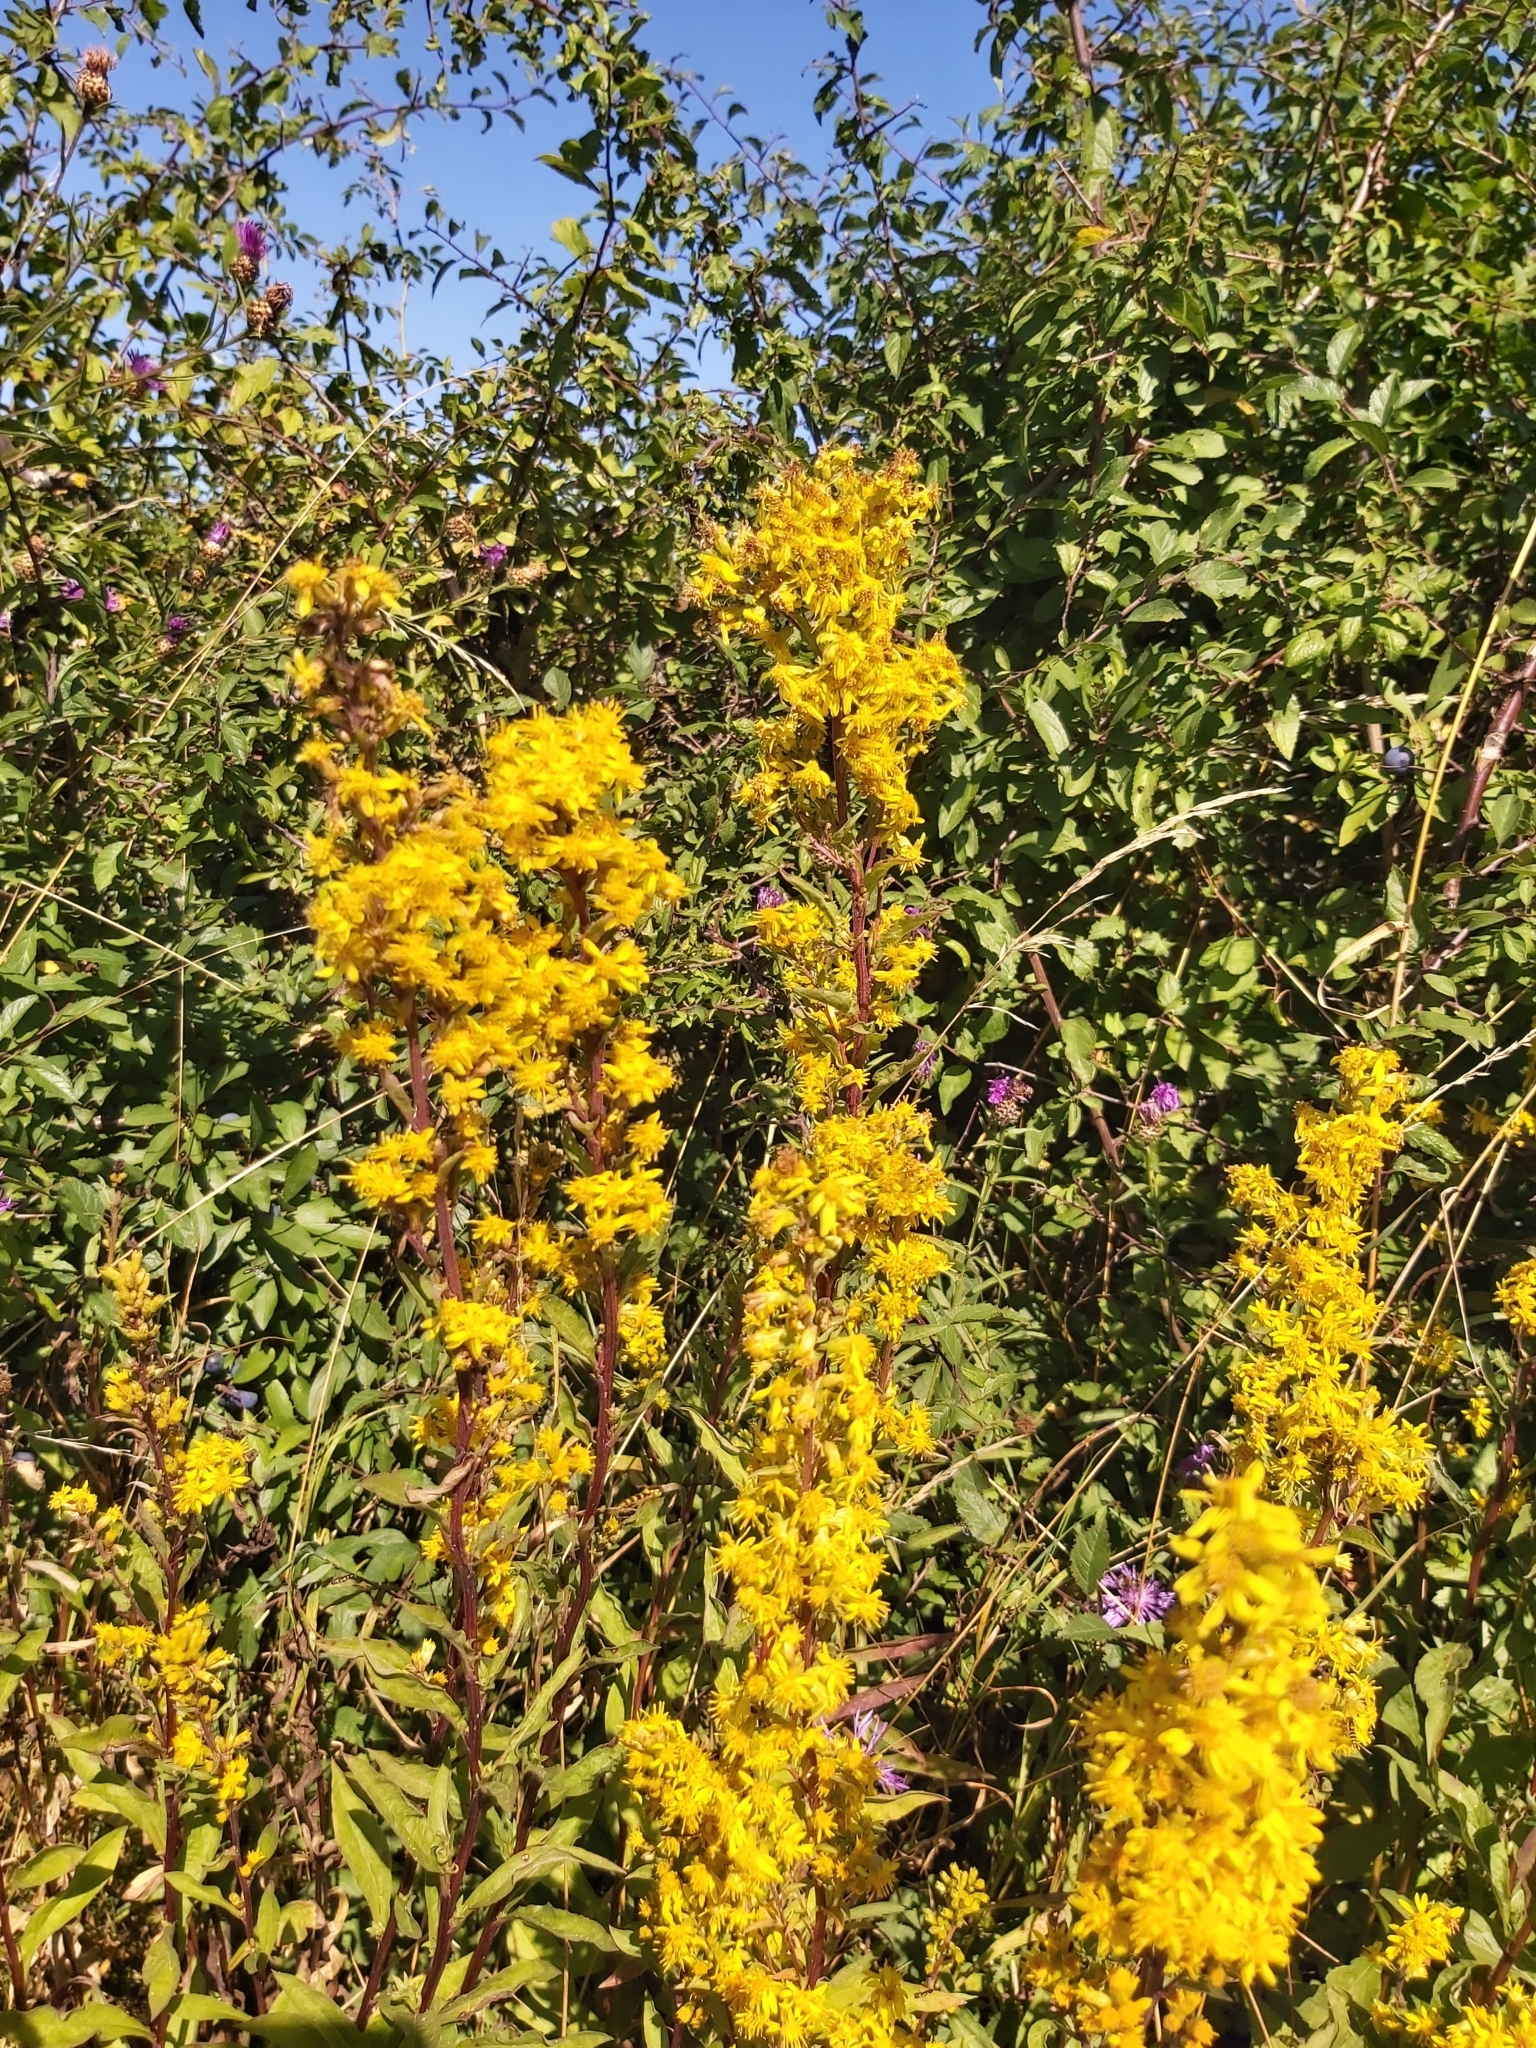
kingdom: Plantae
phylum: Tracheophyta
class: Magnoliopsida
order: Asterales
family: Asteraceae
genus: Solidago
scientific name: Solidago virgaurea
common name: Goldenrod
